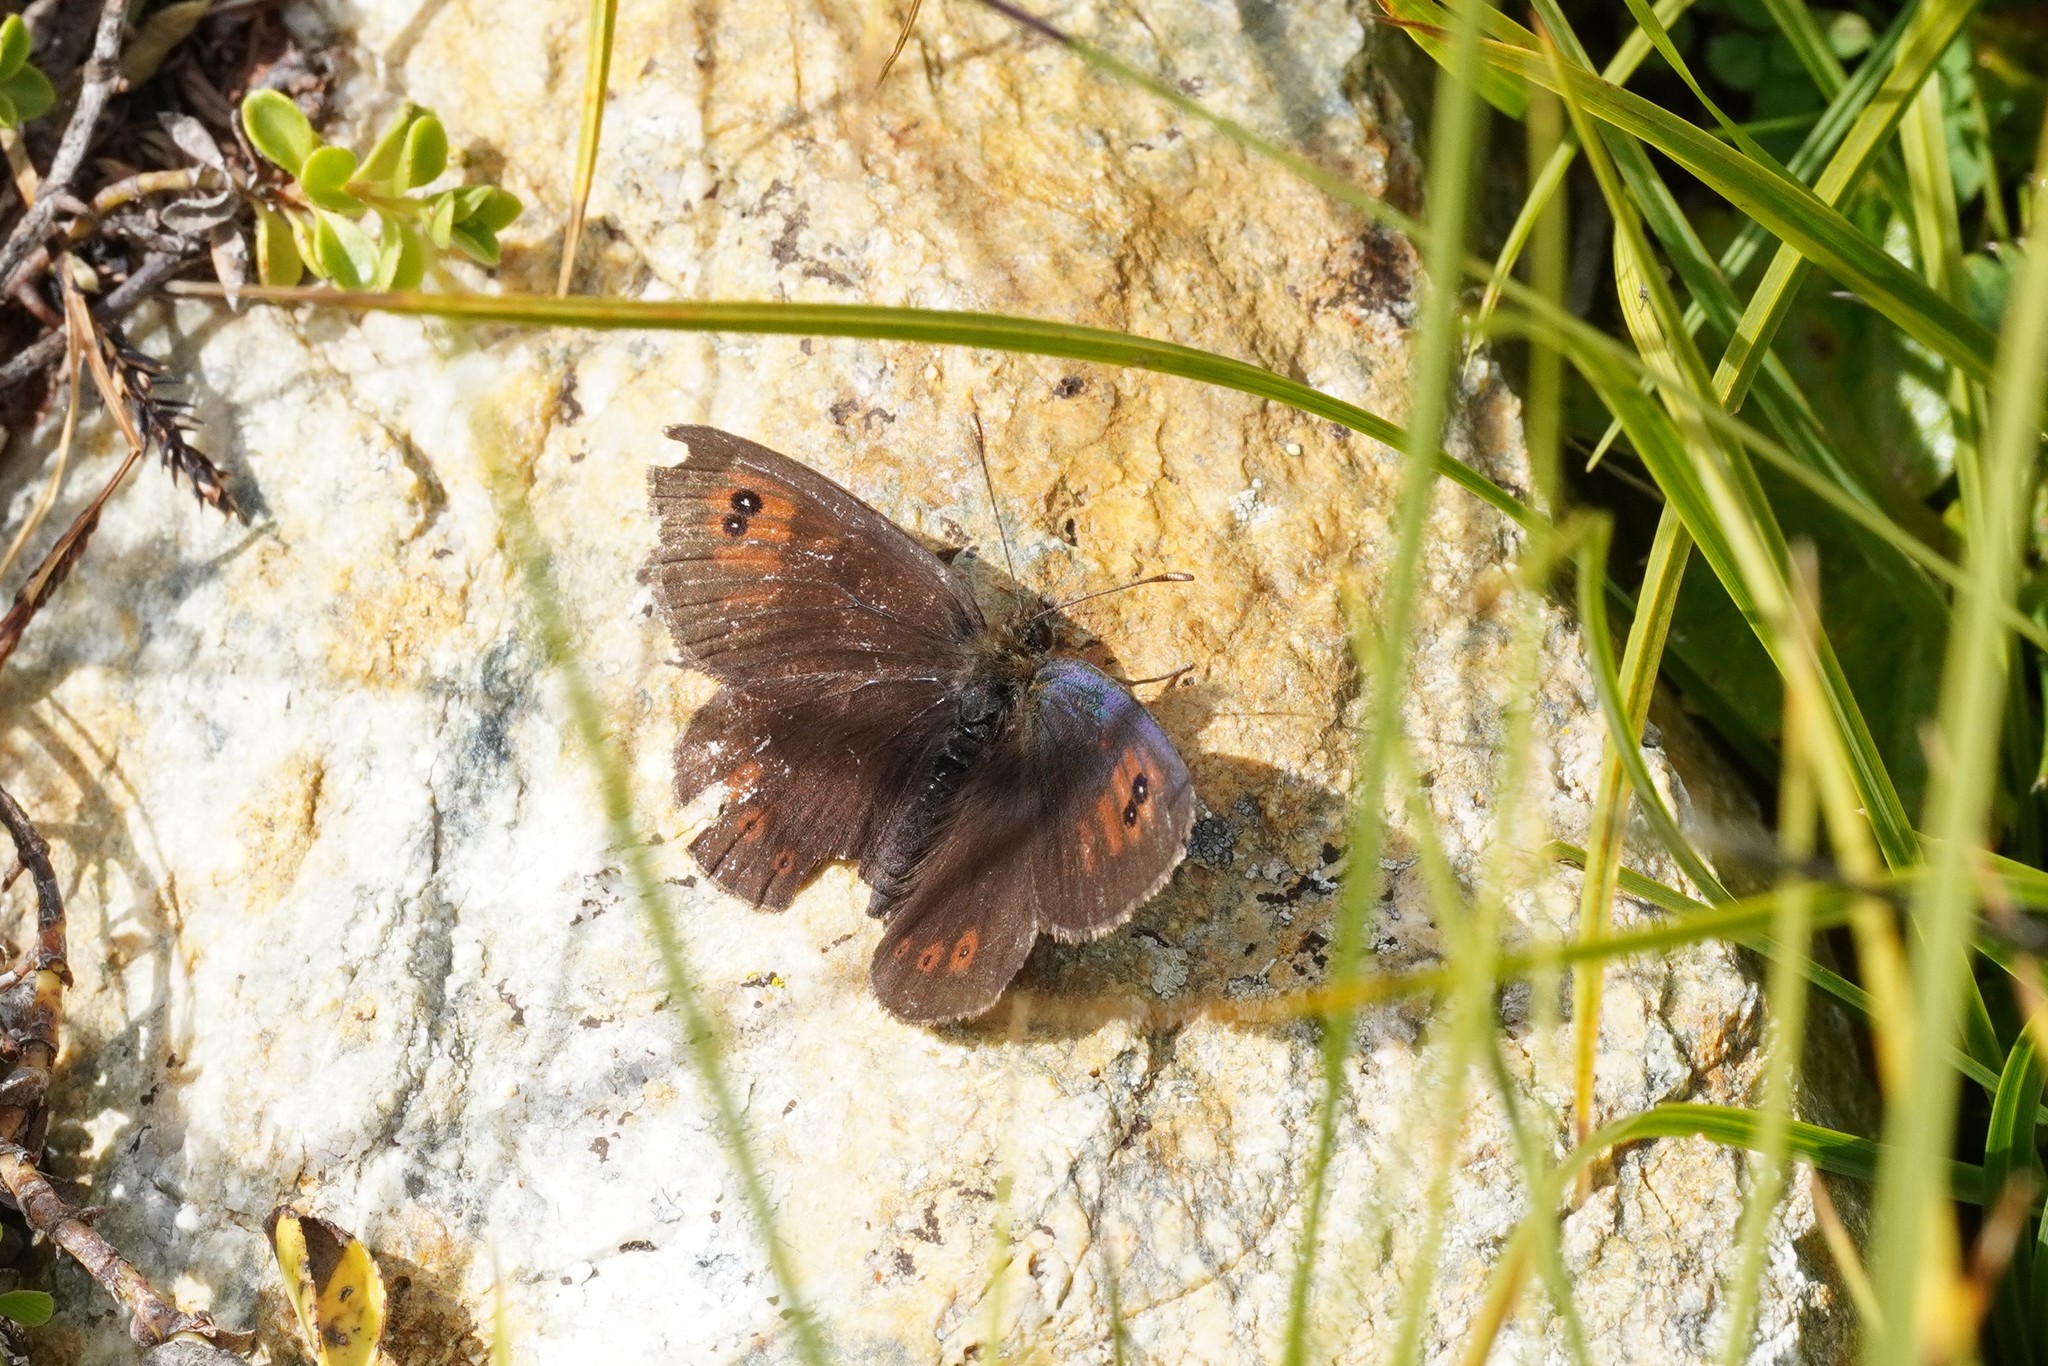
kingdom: Animalia
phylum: Arthropoda
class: Insecta
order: Lepidoptera
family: Nymphalidae
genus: Erebia
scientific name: Erebia cassioides
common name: Common brassy ringlet
